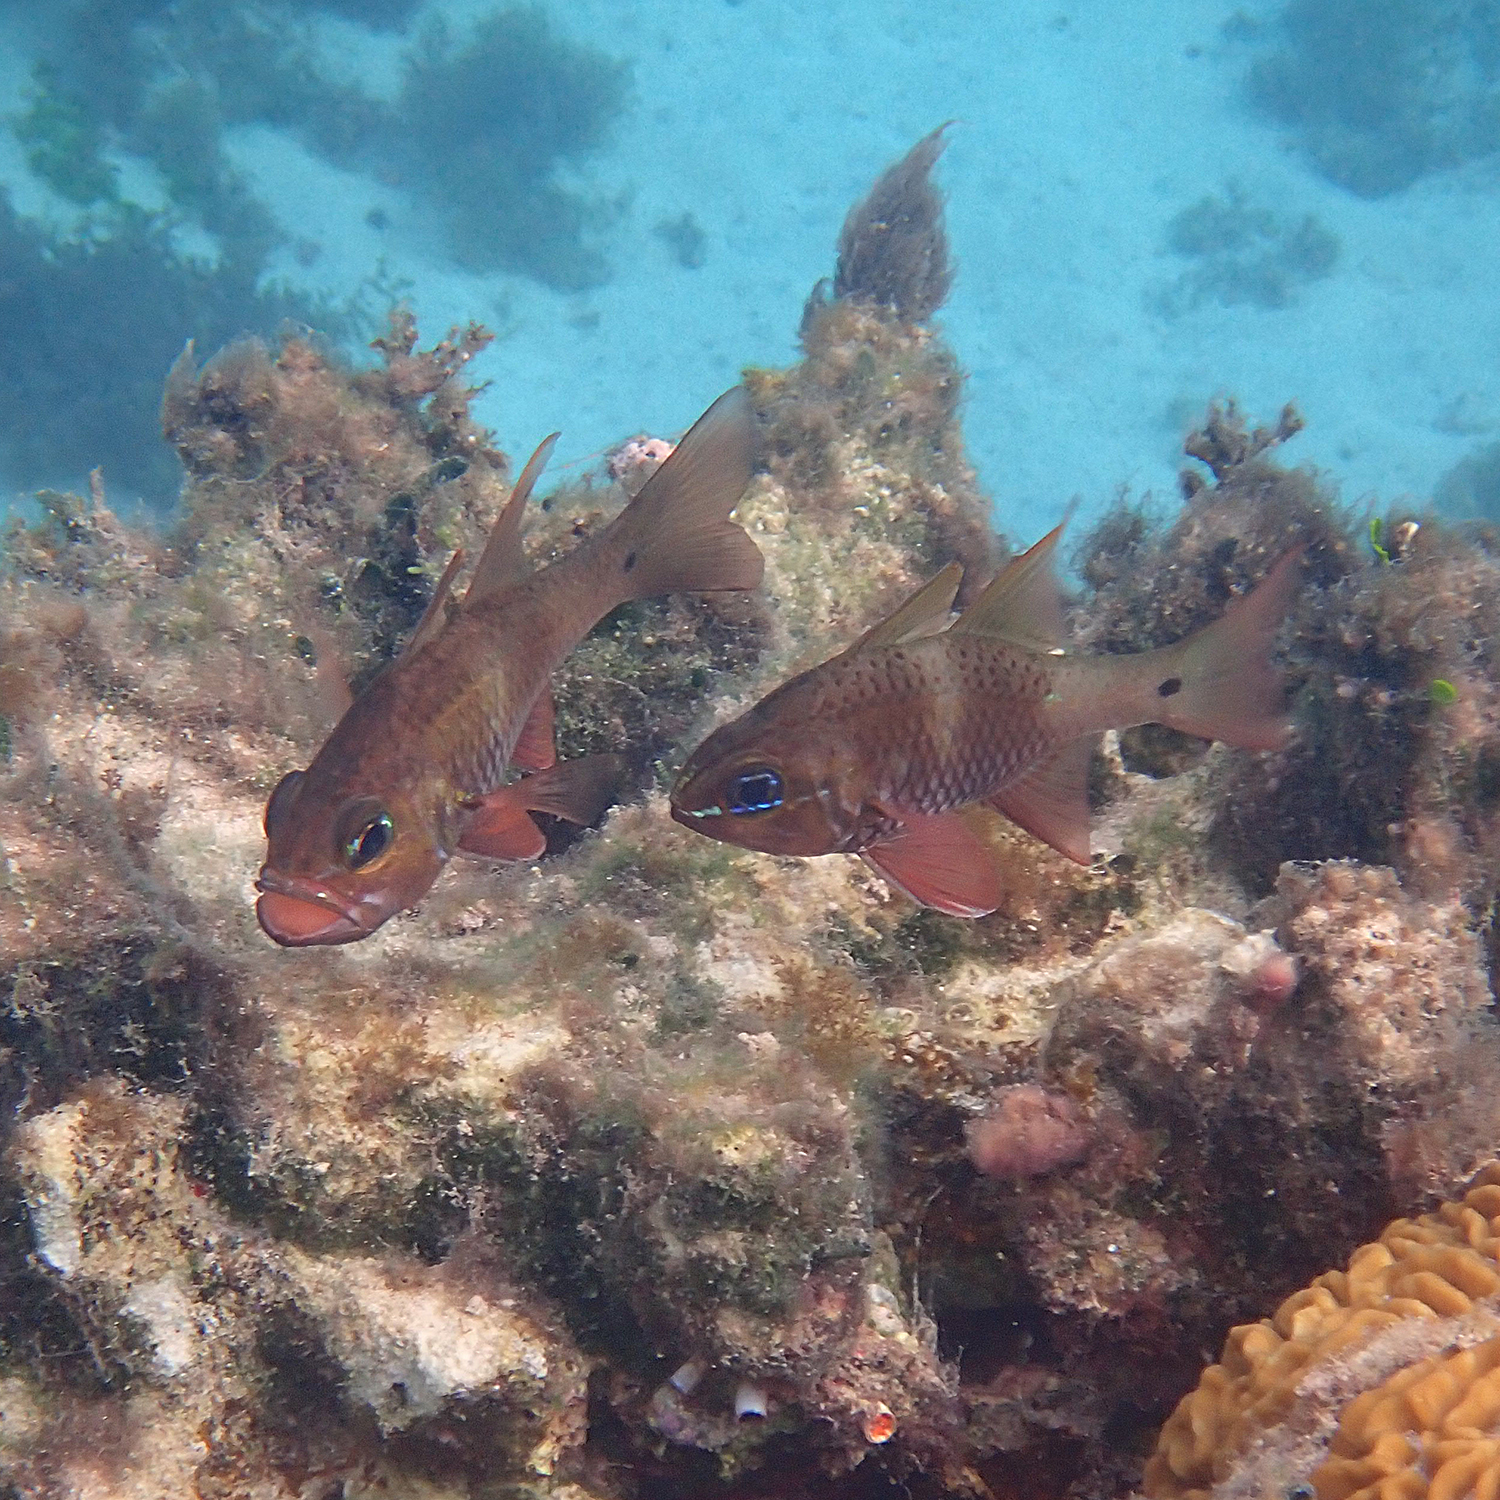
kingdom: Animalia
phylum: Chordata
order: Perciformes
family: Apogonidae
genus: Ostorhinchus
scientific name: Ostorhinchus norfolcensis
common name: Norfolk cardinalfish
